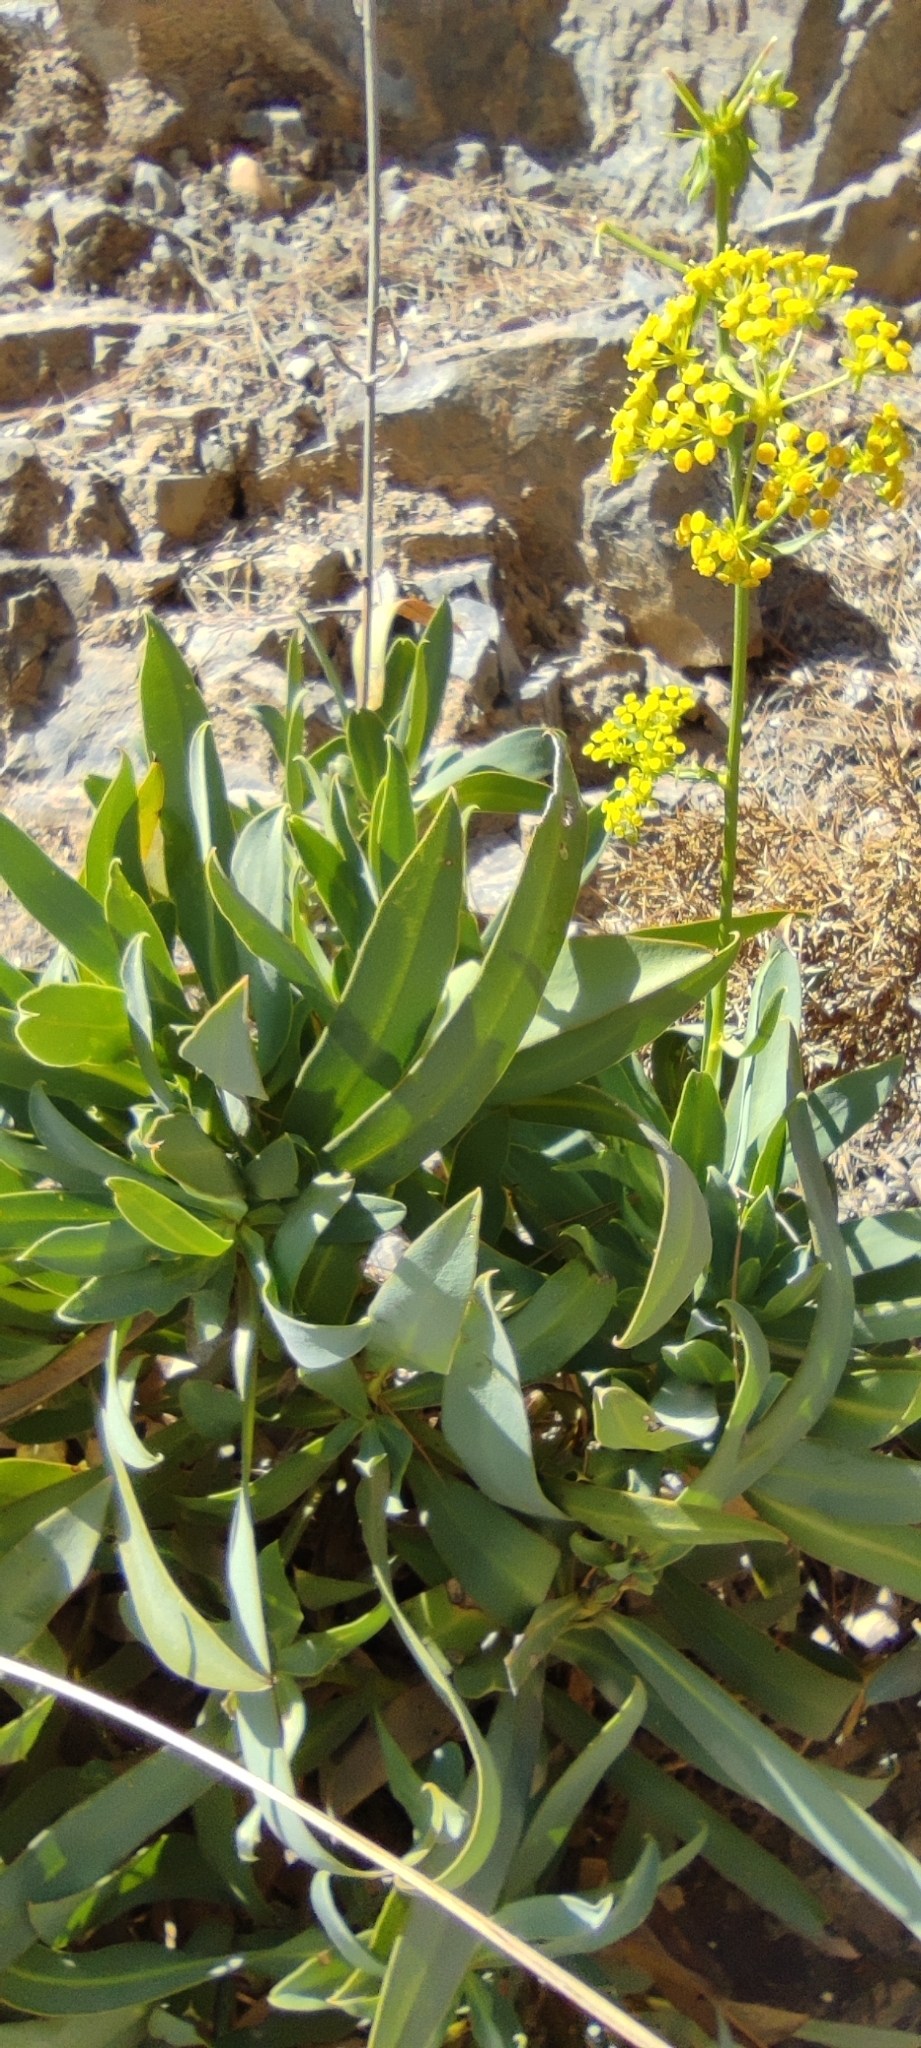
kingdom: Plantae
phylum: Tracheophyta
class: Magnoliopsida
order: Apiales
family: Apiaceae
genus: Bupleurum
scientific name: Bupleurum gibraltaricum
